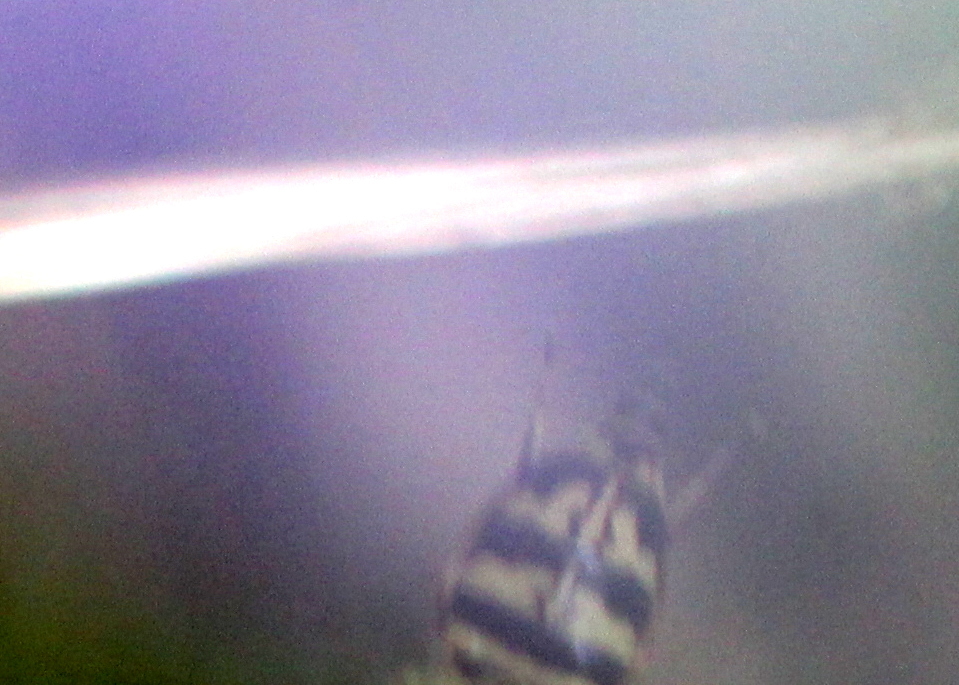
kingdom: Animalia
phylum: Arthropoda
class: Insecta
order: Diptera
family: Syrphidae
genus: Toxomerus
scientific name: Toxomerus geminatus
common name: Eastern calligrapher
